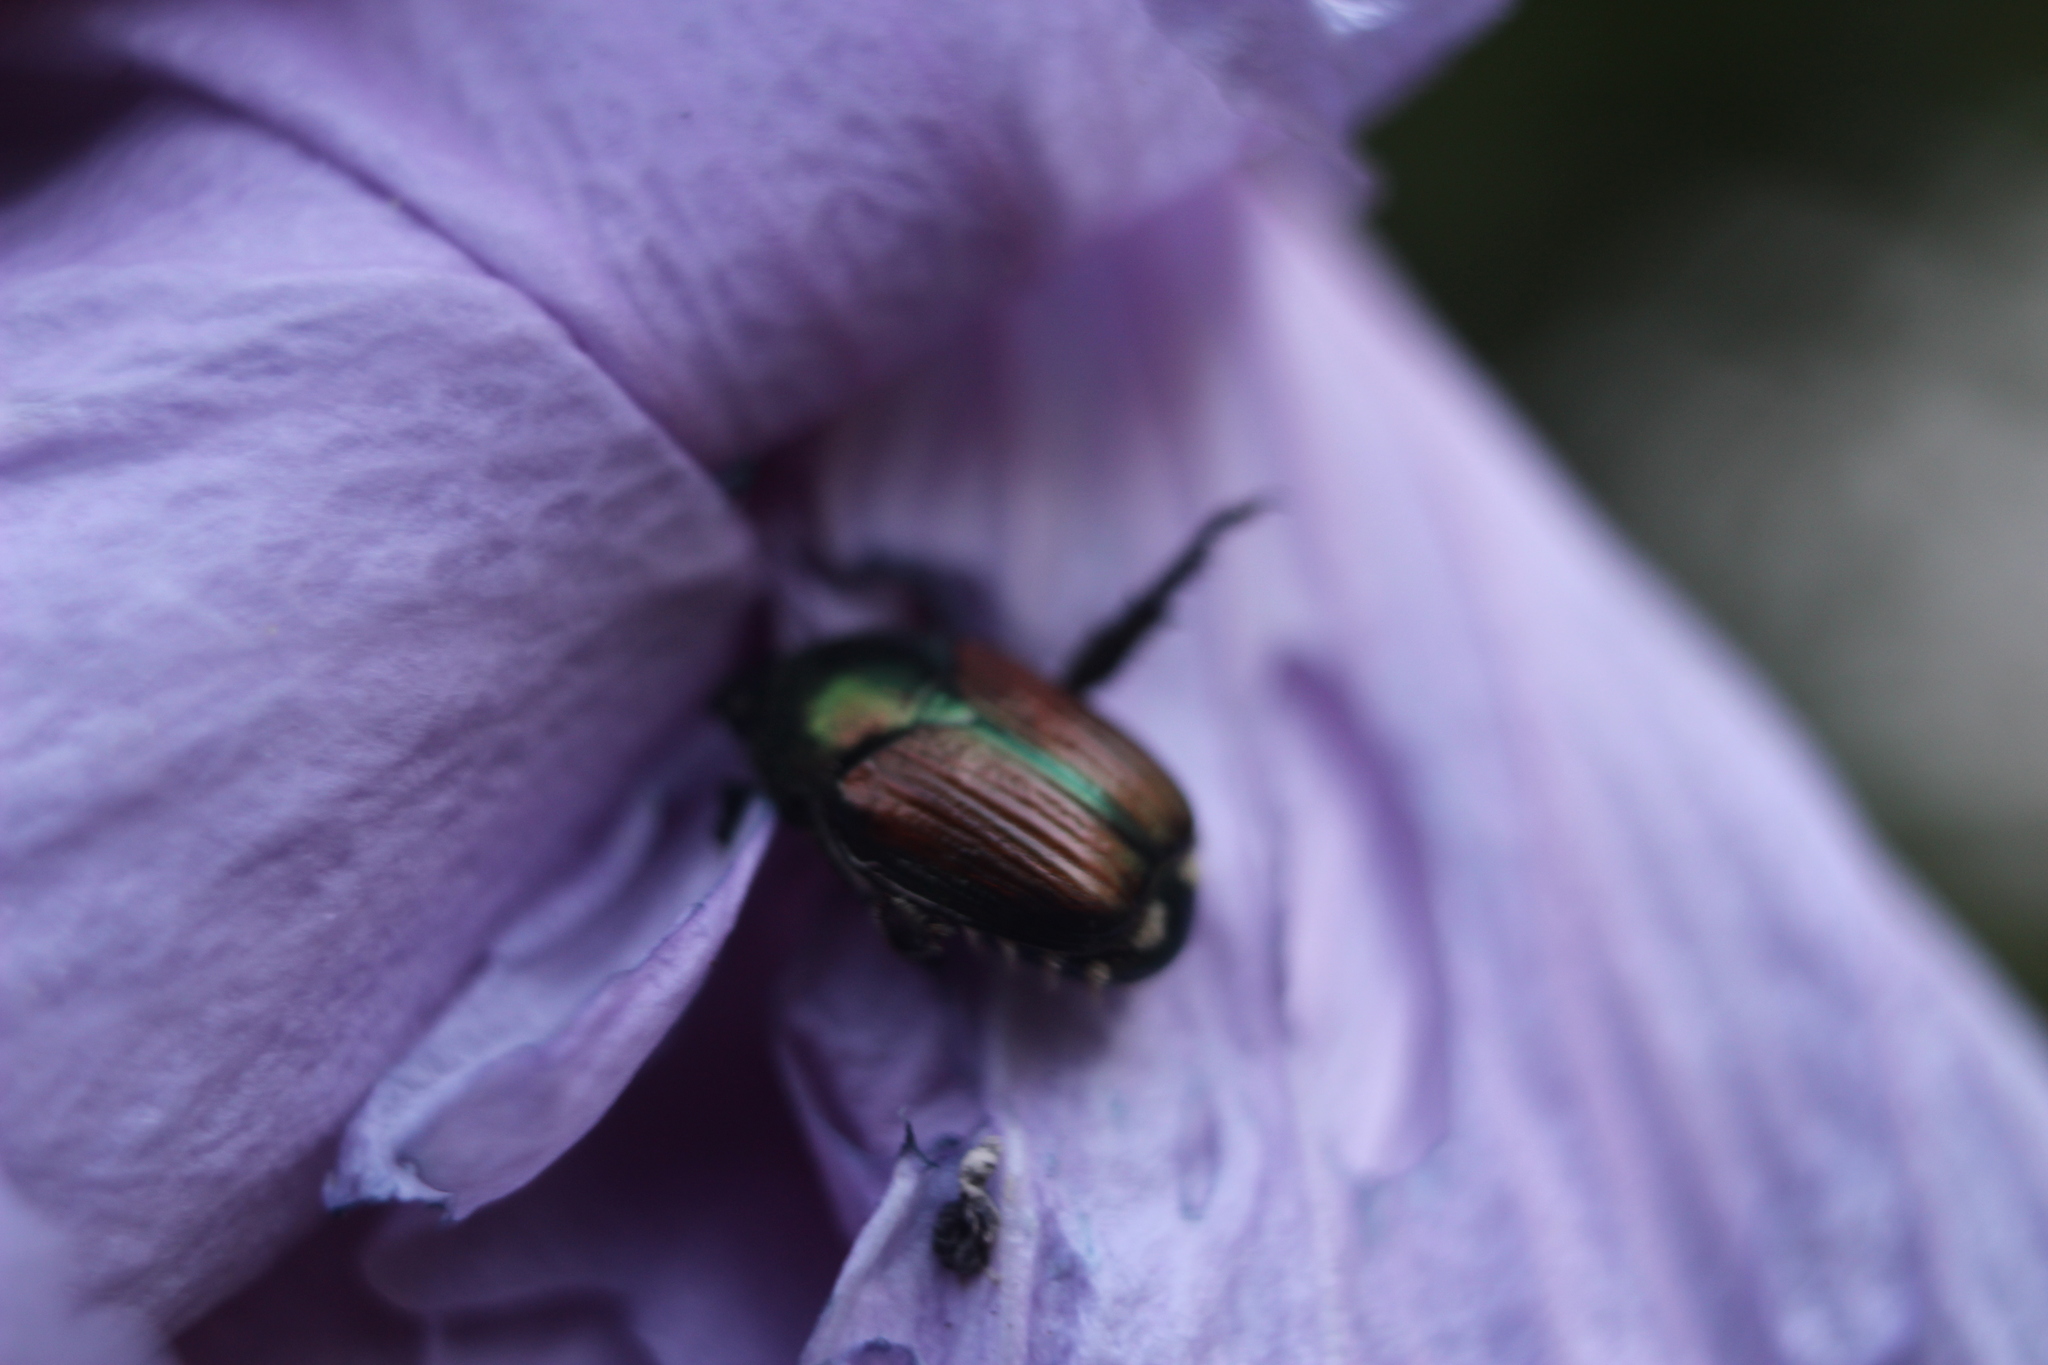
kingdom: Animalia
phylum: Arthropoda
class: Insecta
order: Coleoptera
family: Scarabaeidae
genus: Popillia
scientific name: Popillia japonica
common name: Japanese beetle
